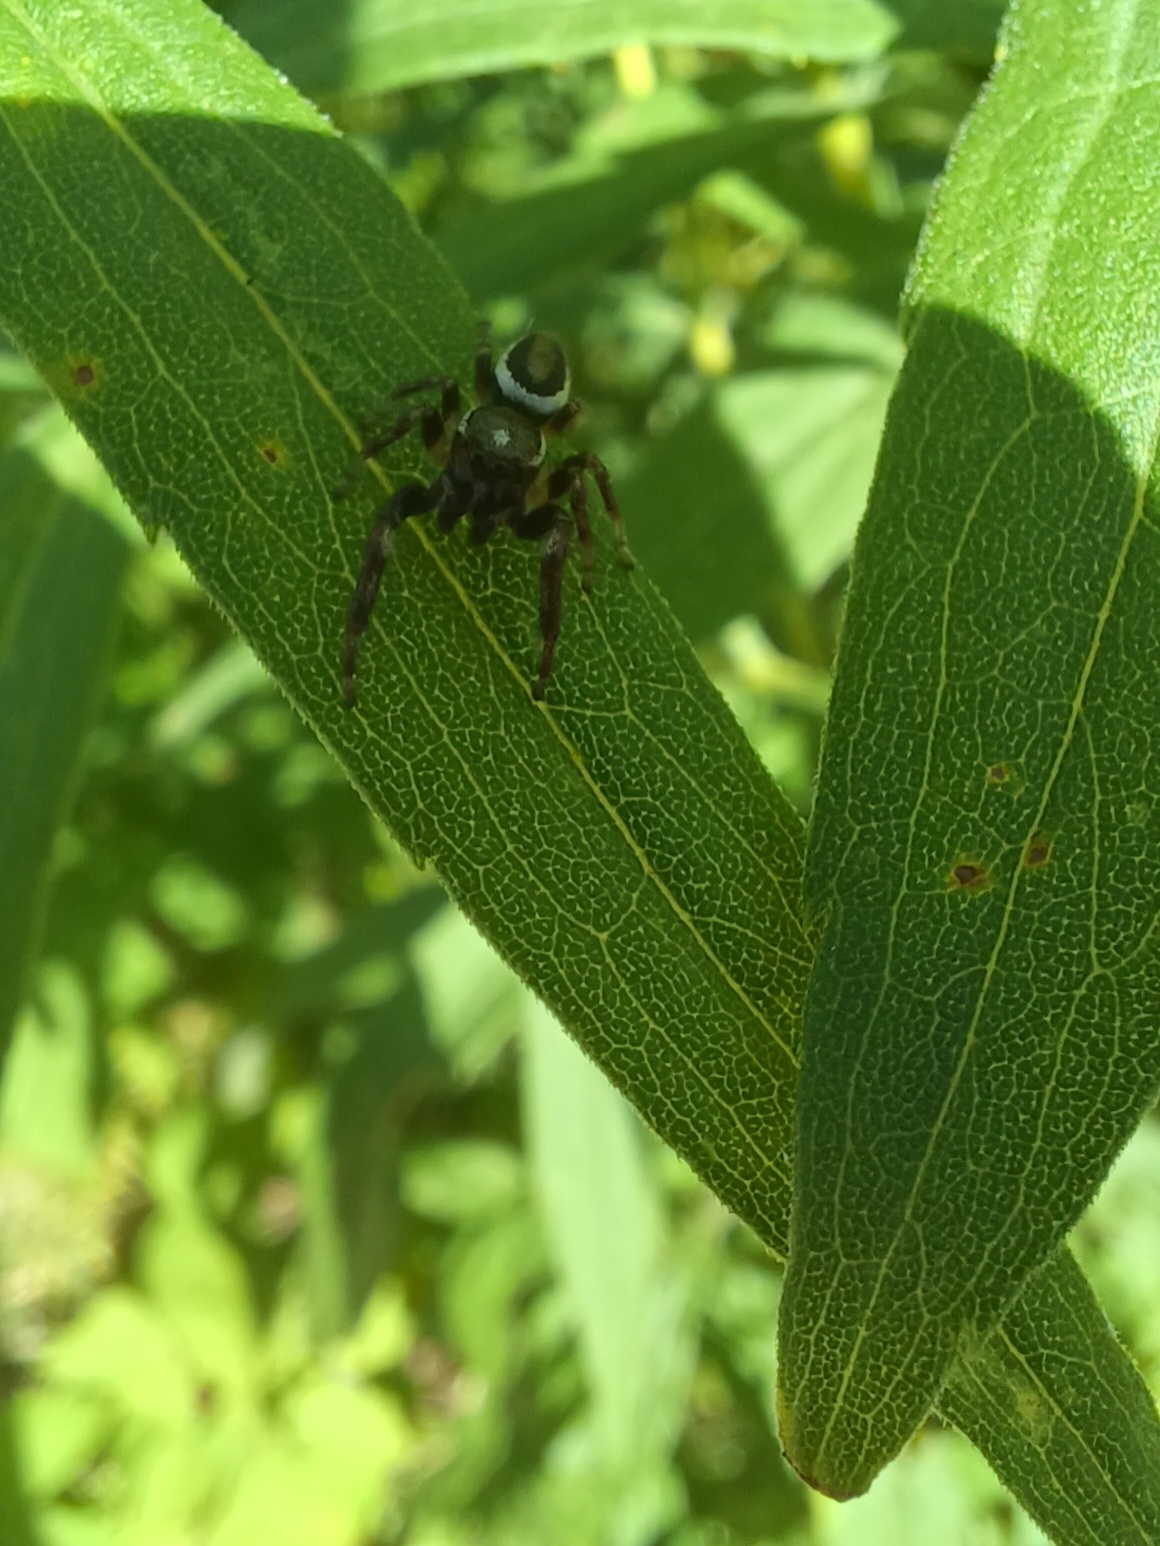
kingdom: Animalia
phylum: Arthropoda
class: Arachnida
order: Araneae
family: Salticidae
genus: Eris
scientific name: Eris militaris
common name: Bronze jumper
